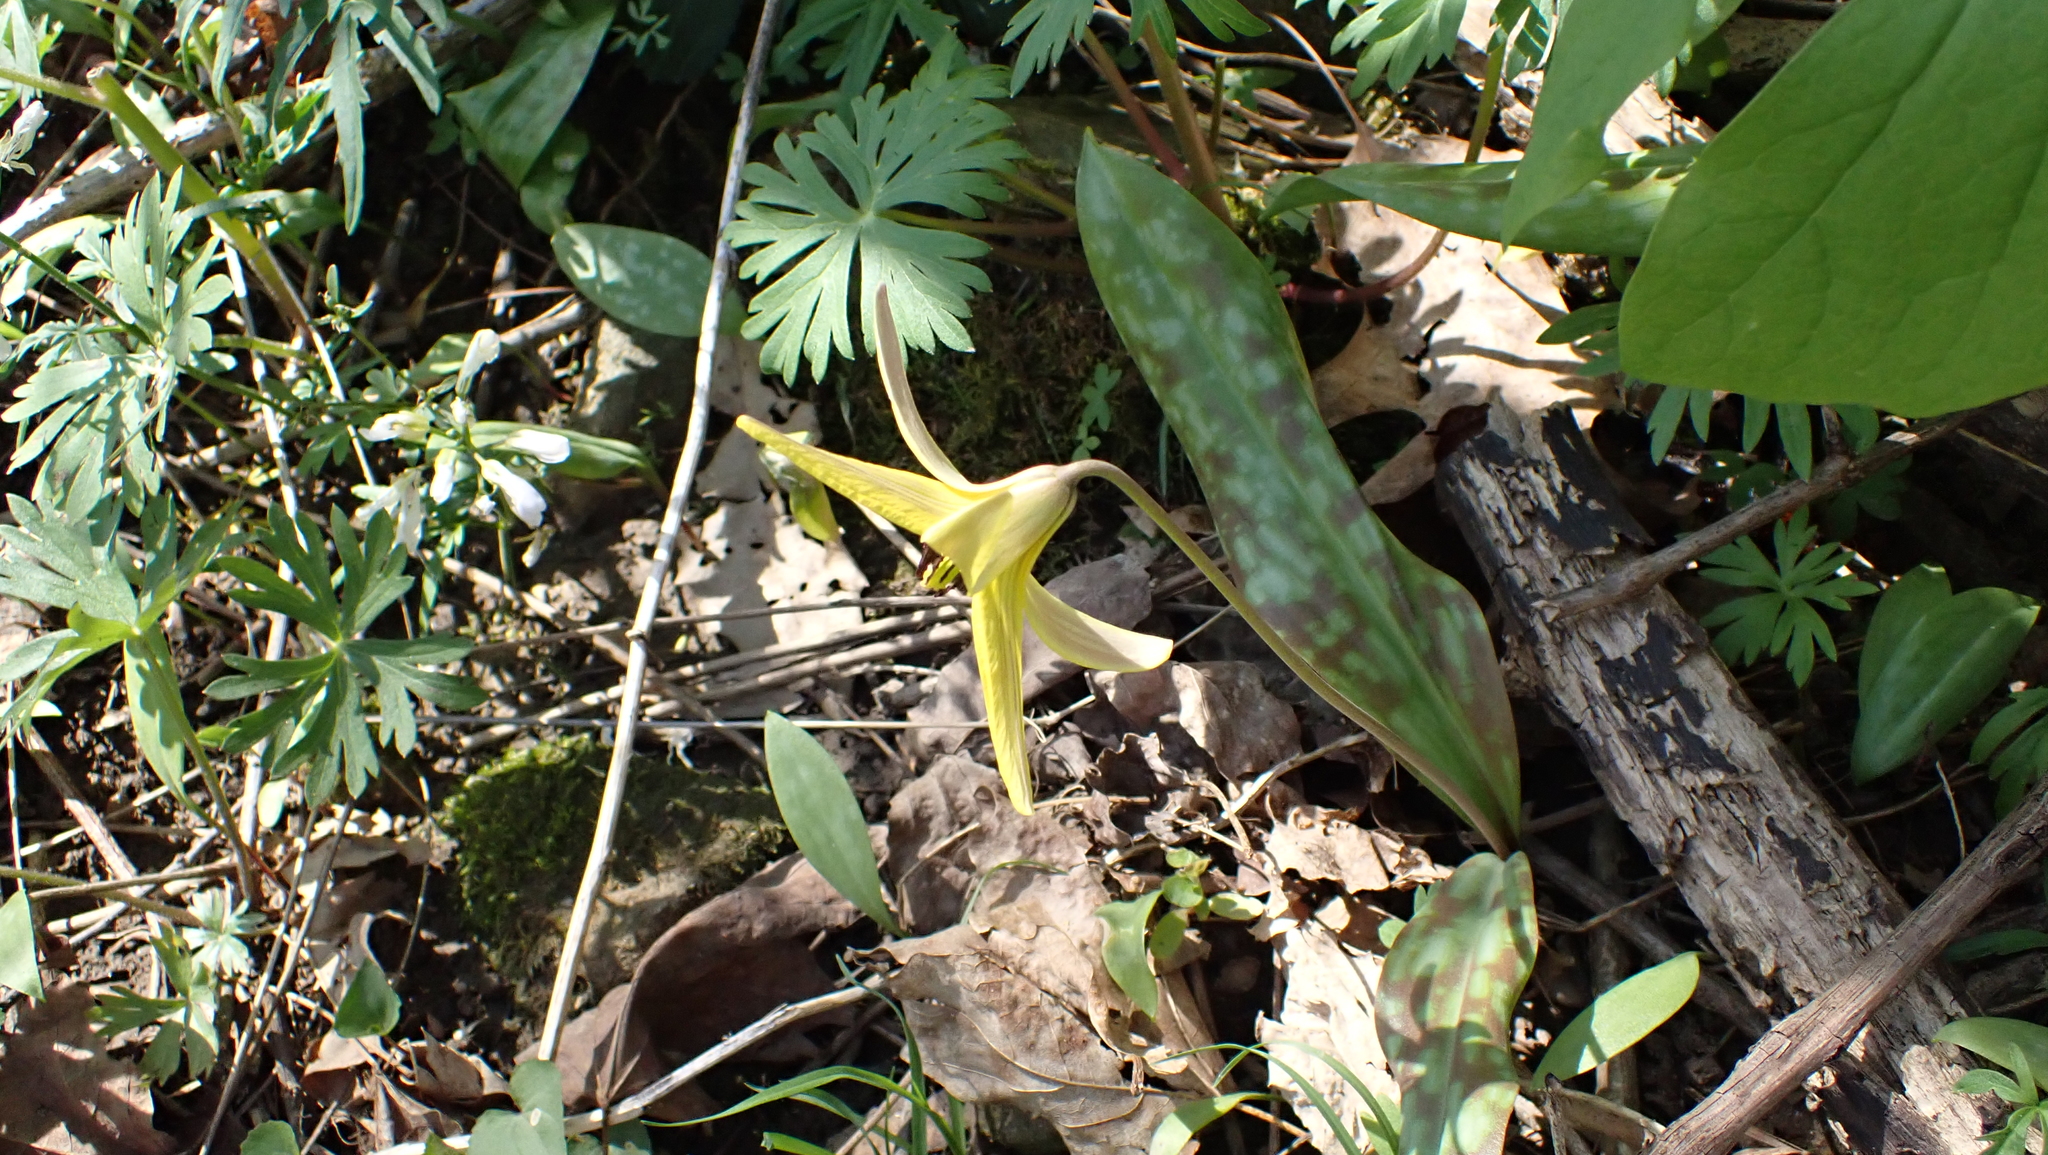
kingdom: Plantae
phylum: Tracheophyta
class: Liliopsida
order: Liliales
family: Liliaceae
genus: Erythronium
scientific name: Erythronium americanum
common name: Yellow adder's-tongue
